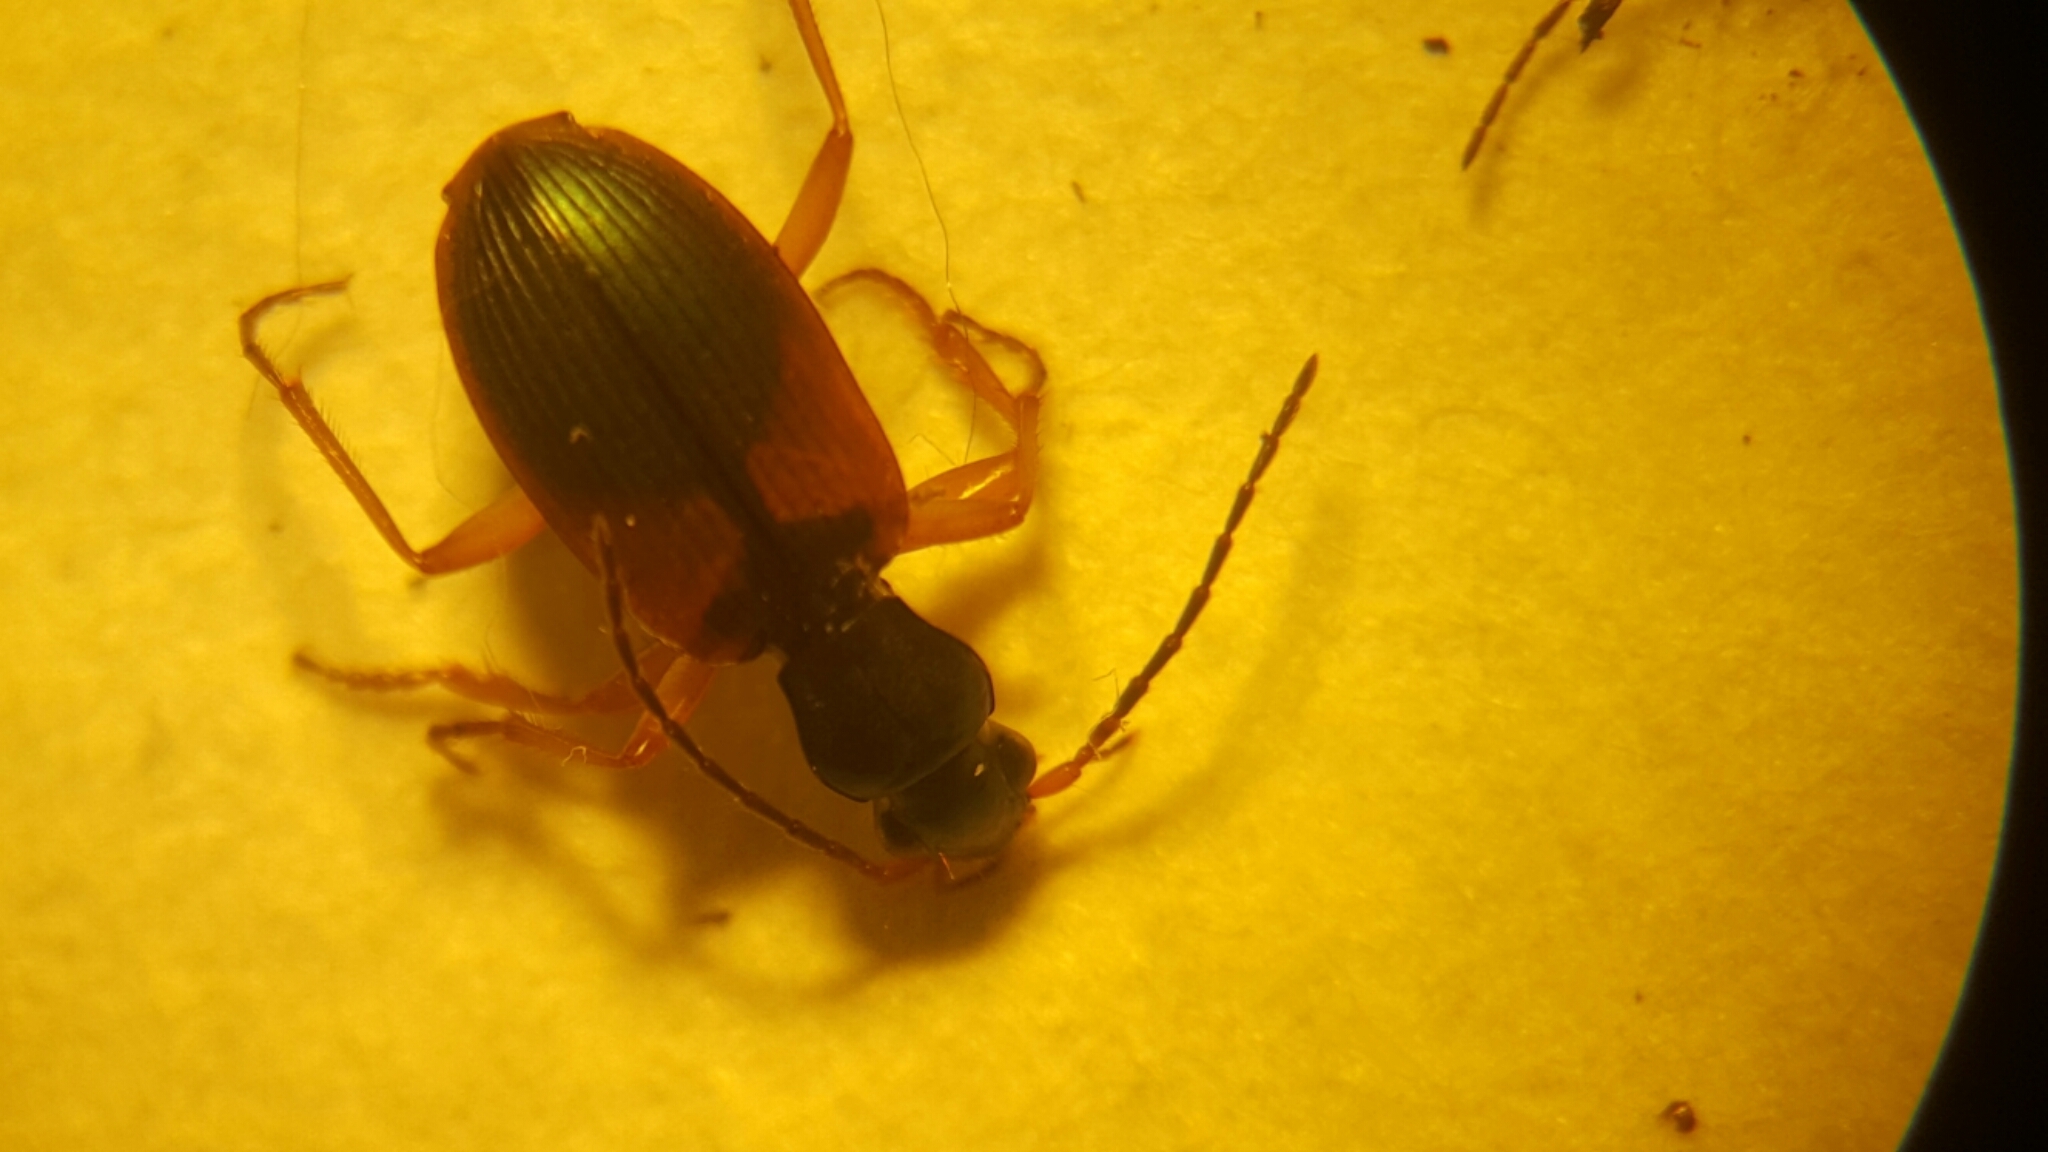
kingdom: Animalia
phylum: Arthropoda
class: Insecta
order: Coleoptera
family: Carabidae
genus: Anchomenus
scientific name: Anchomenus dorsalis
